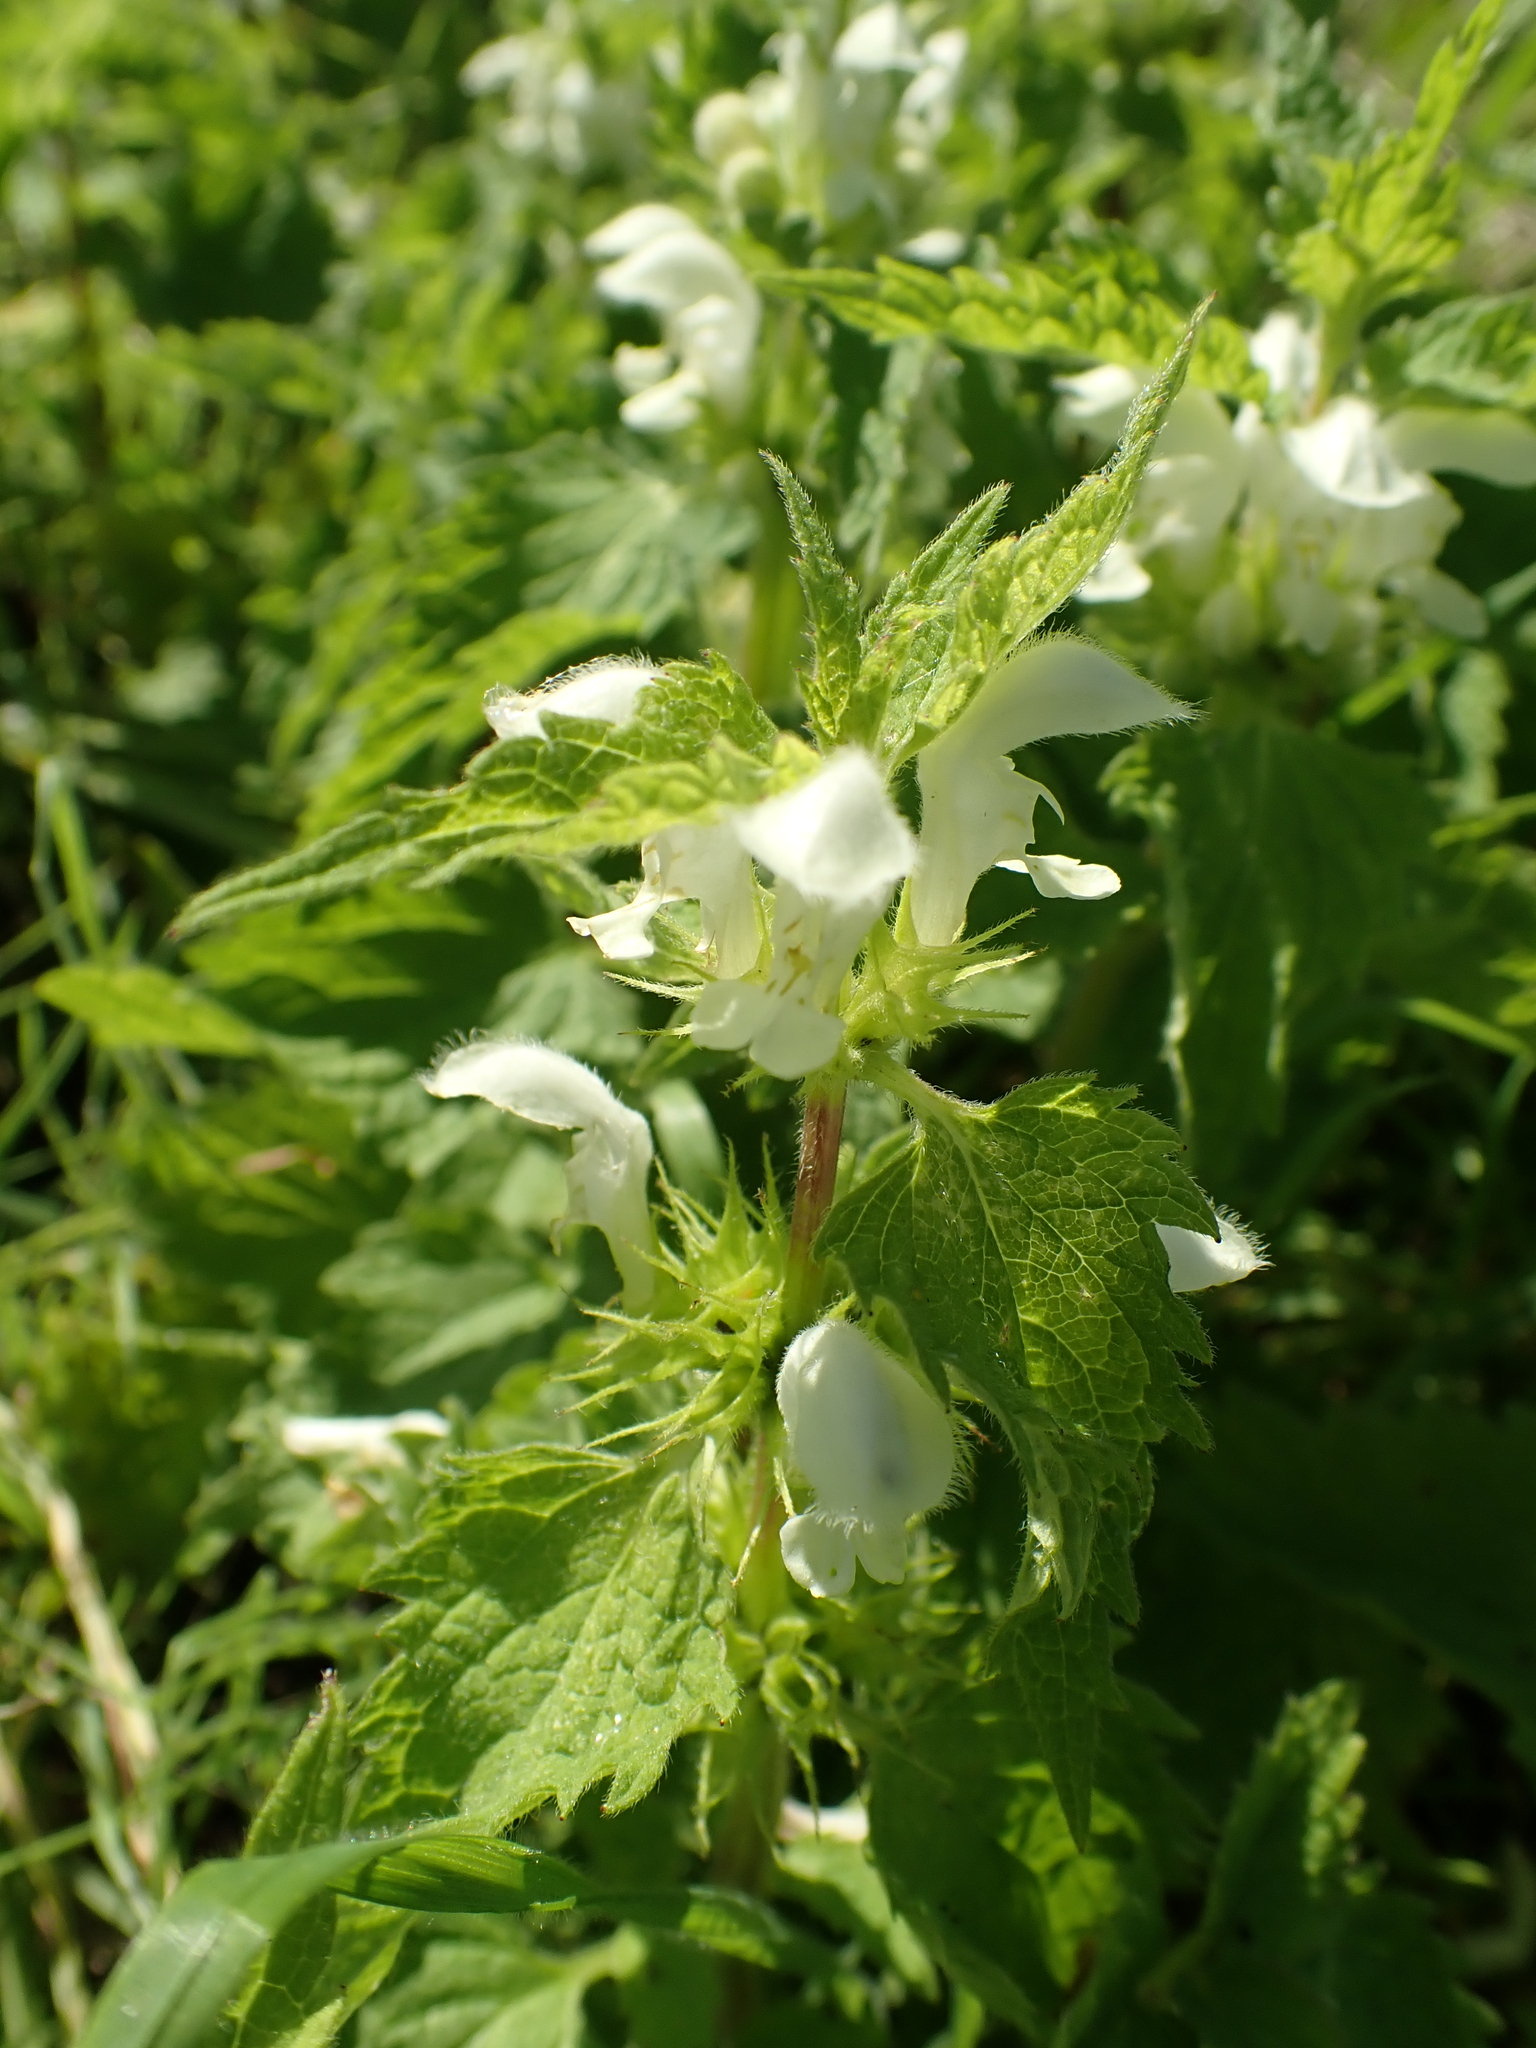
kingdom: Plantae
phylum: Tracheophyta
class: Magnoliopsida
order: Lamiales
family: Lamiaceae
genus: Lamium
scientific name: Lamium album
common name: White dead-nettle
